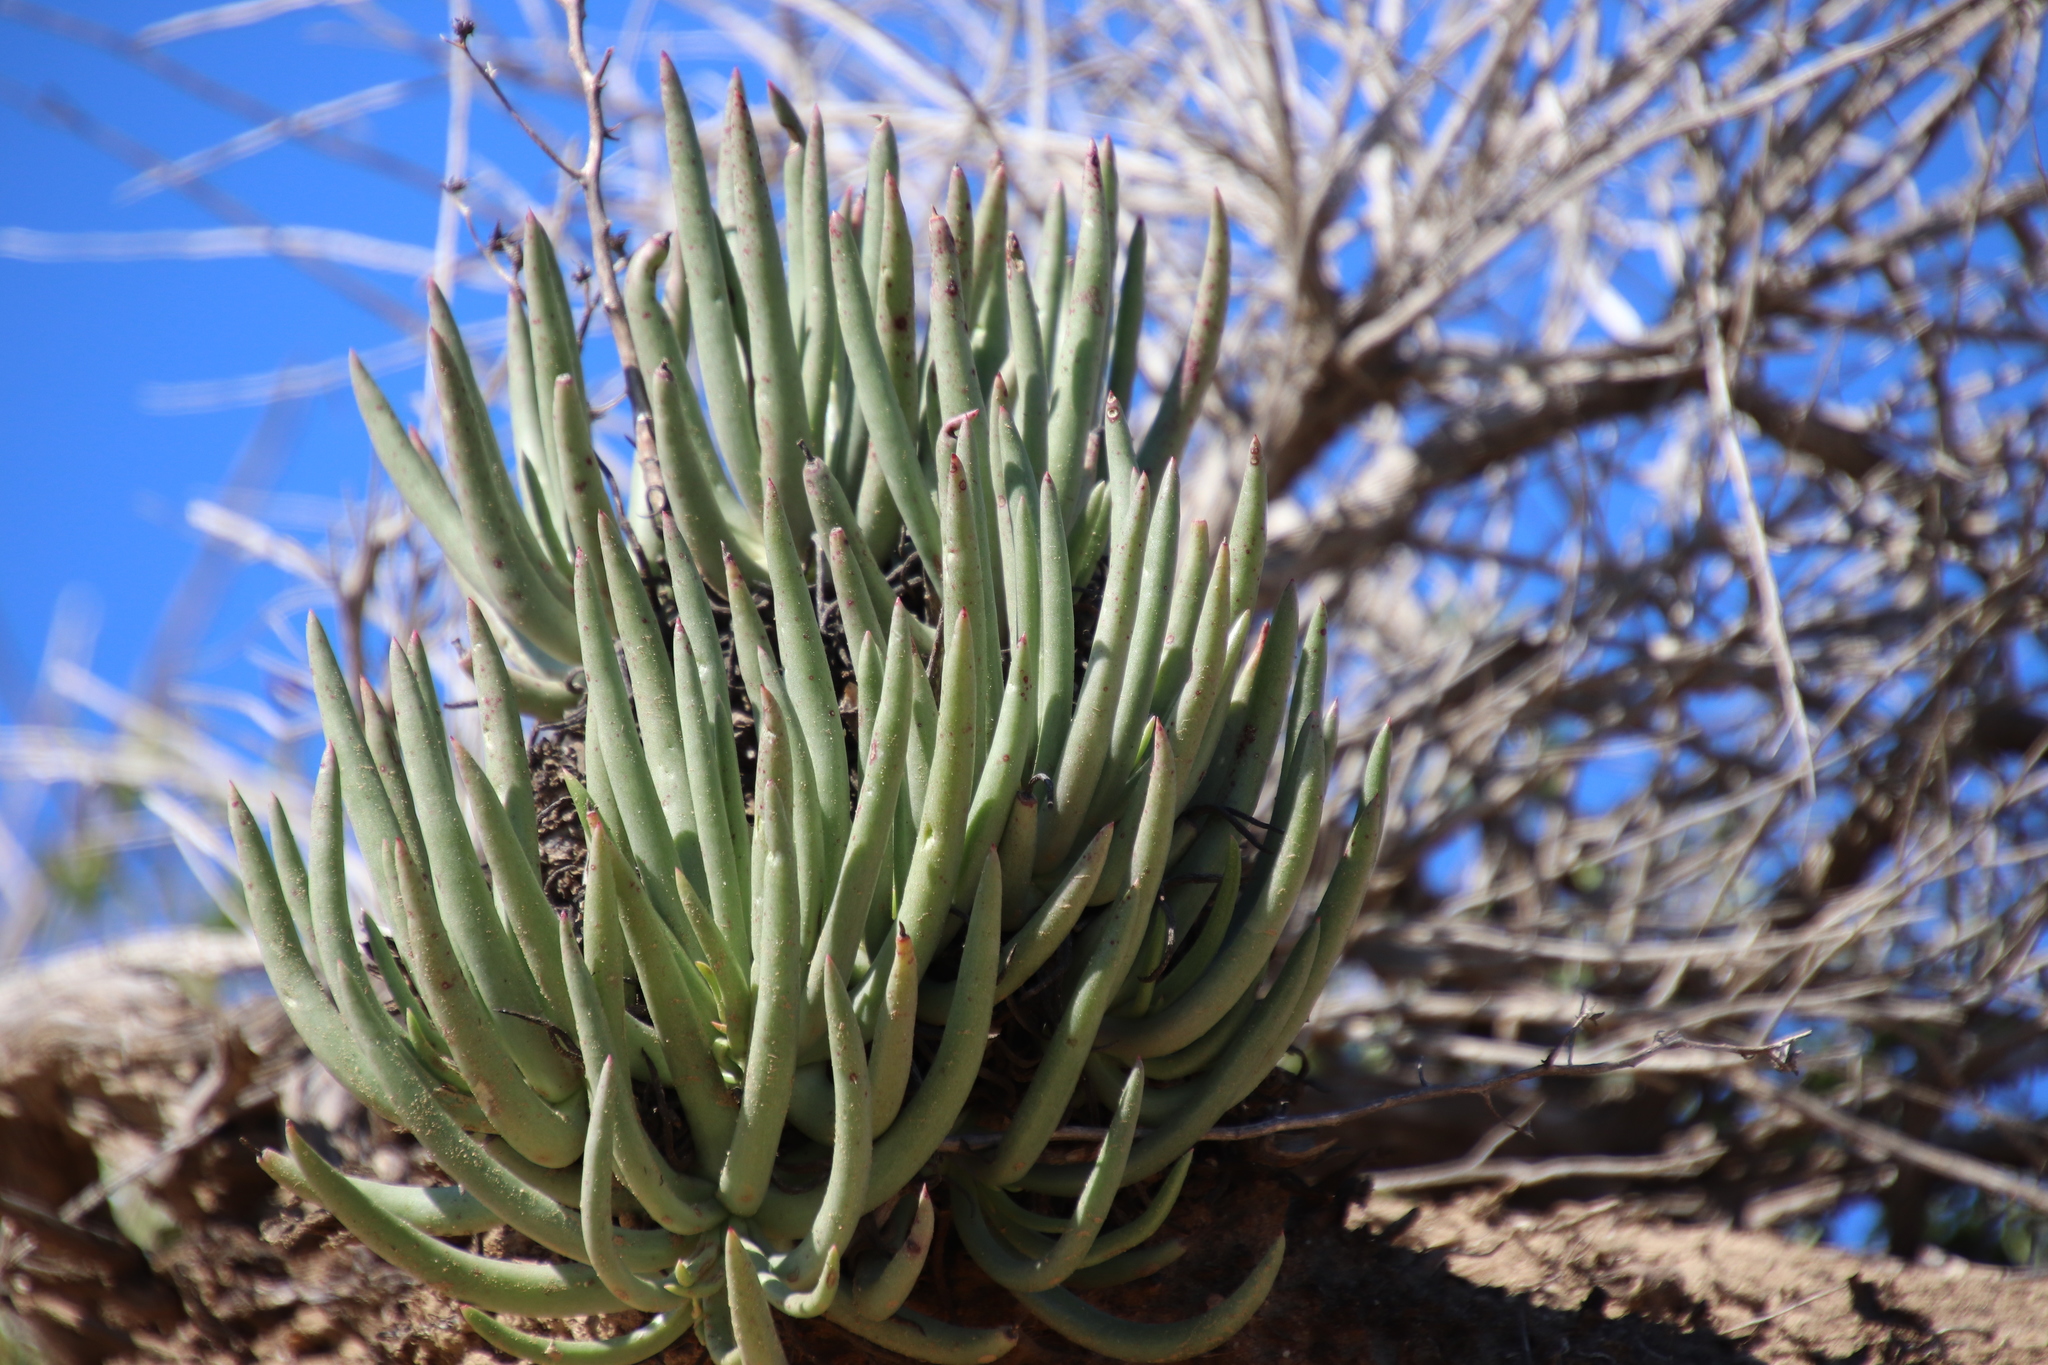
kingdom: Plantae
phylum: Tracheophyta
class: Magnoliopsida
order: Saxifragales
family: Crassulaceae
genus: Dudleya
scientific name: Dudleya edulis
